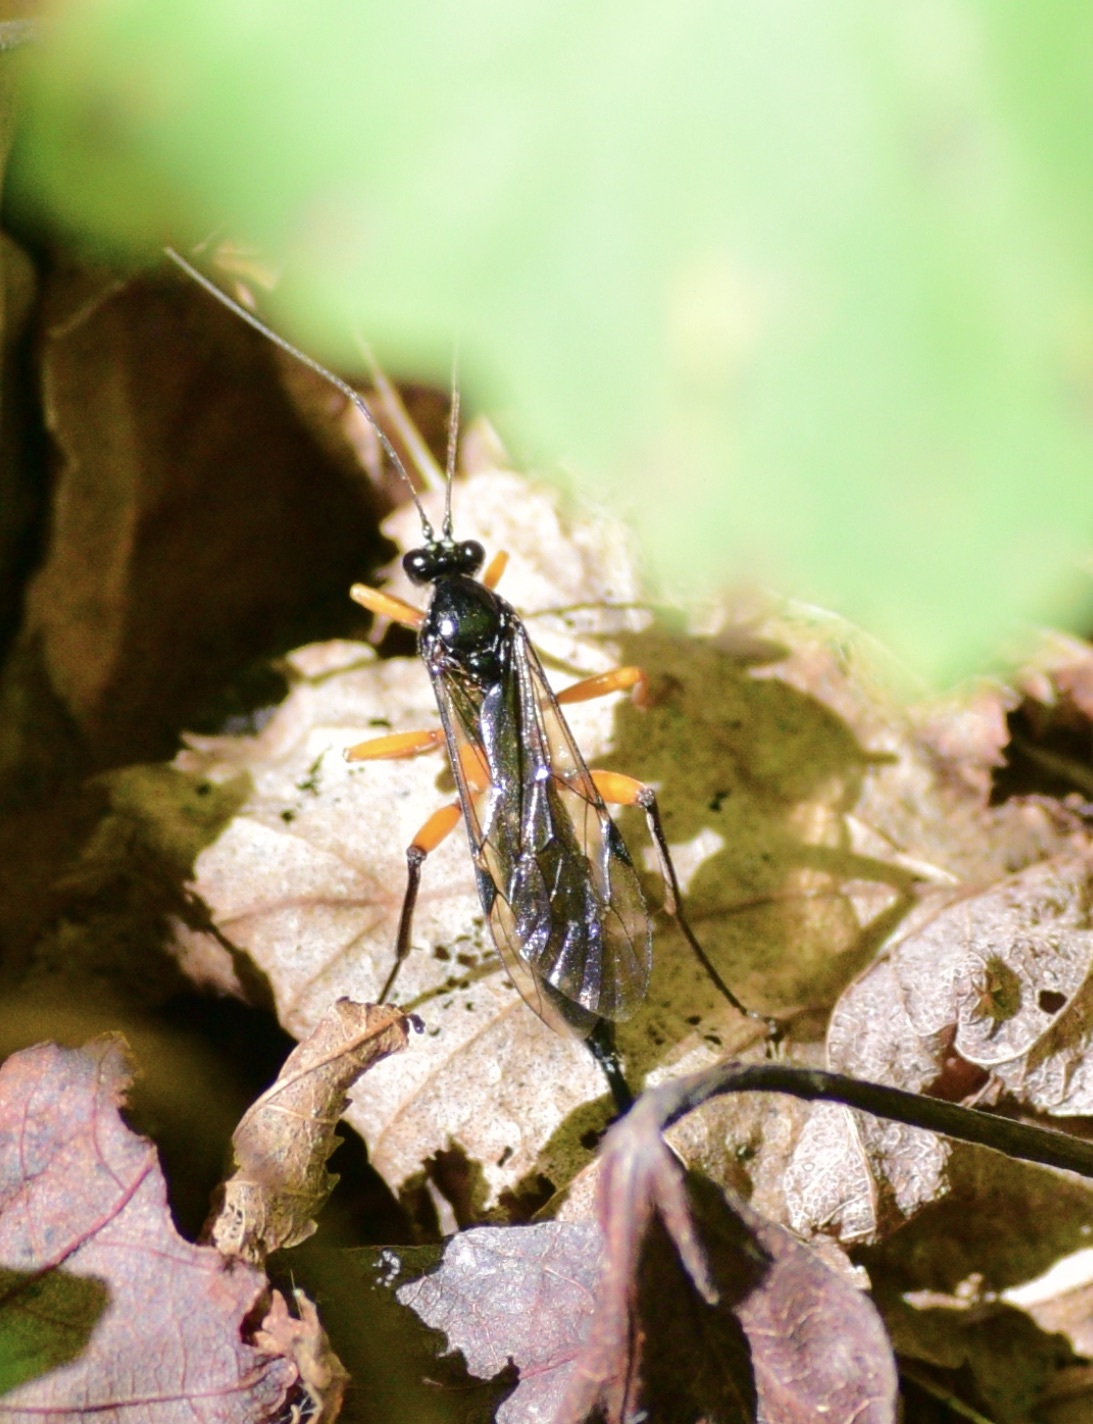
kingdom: Animalia
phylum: Arthropoda
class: Insecta
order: Hymenoptera
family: Ichneumonidae
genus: Pimpla
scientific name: Pimpla pedalis
